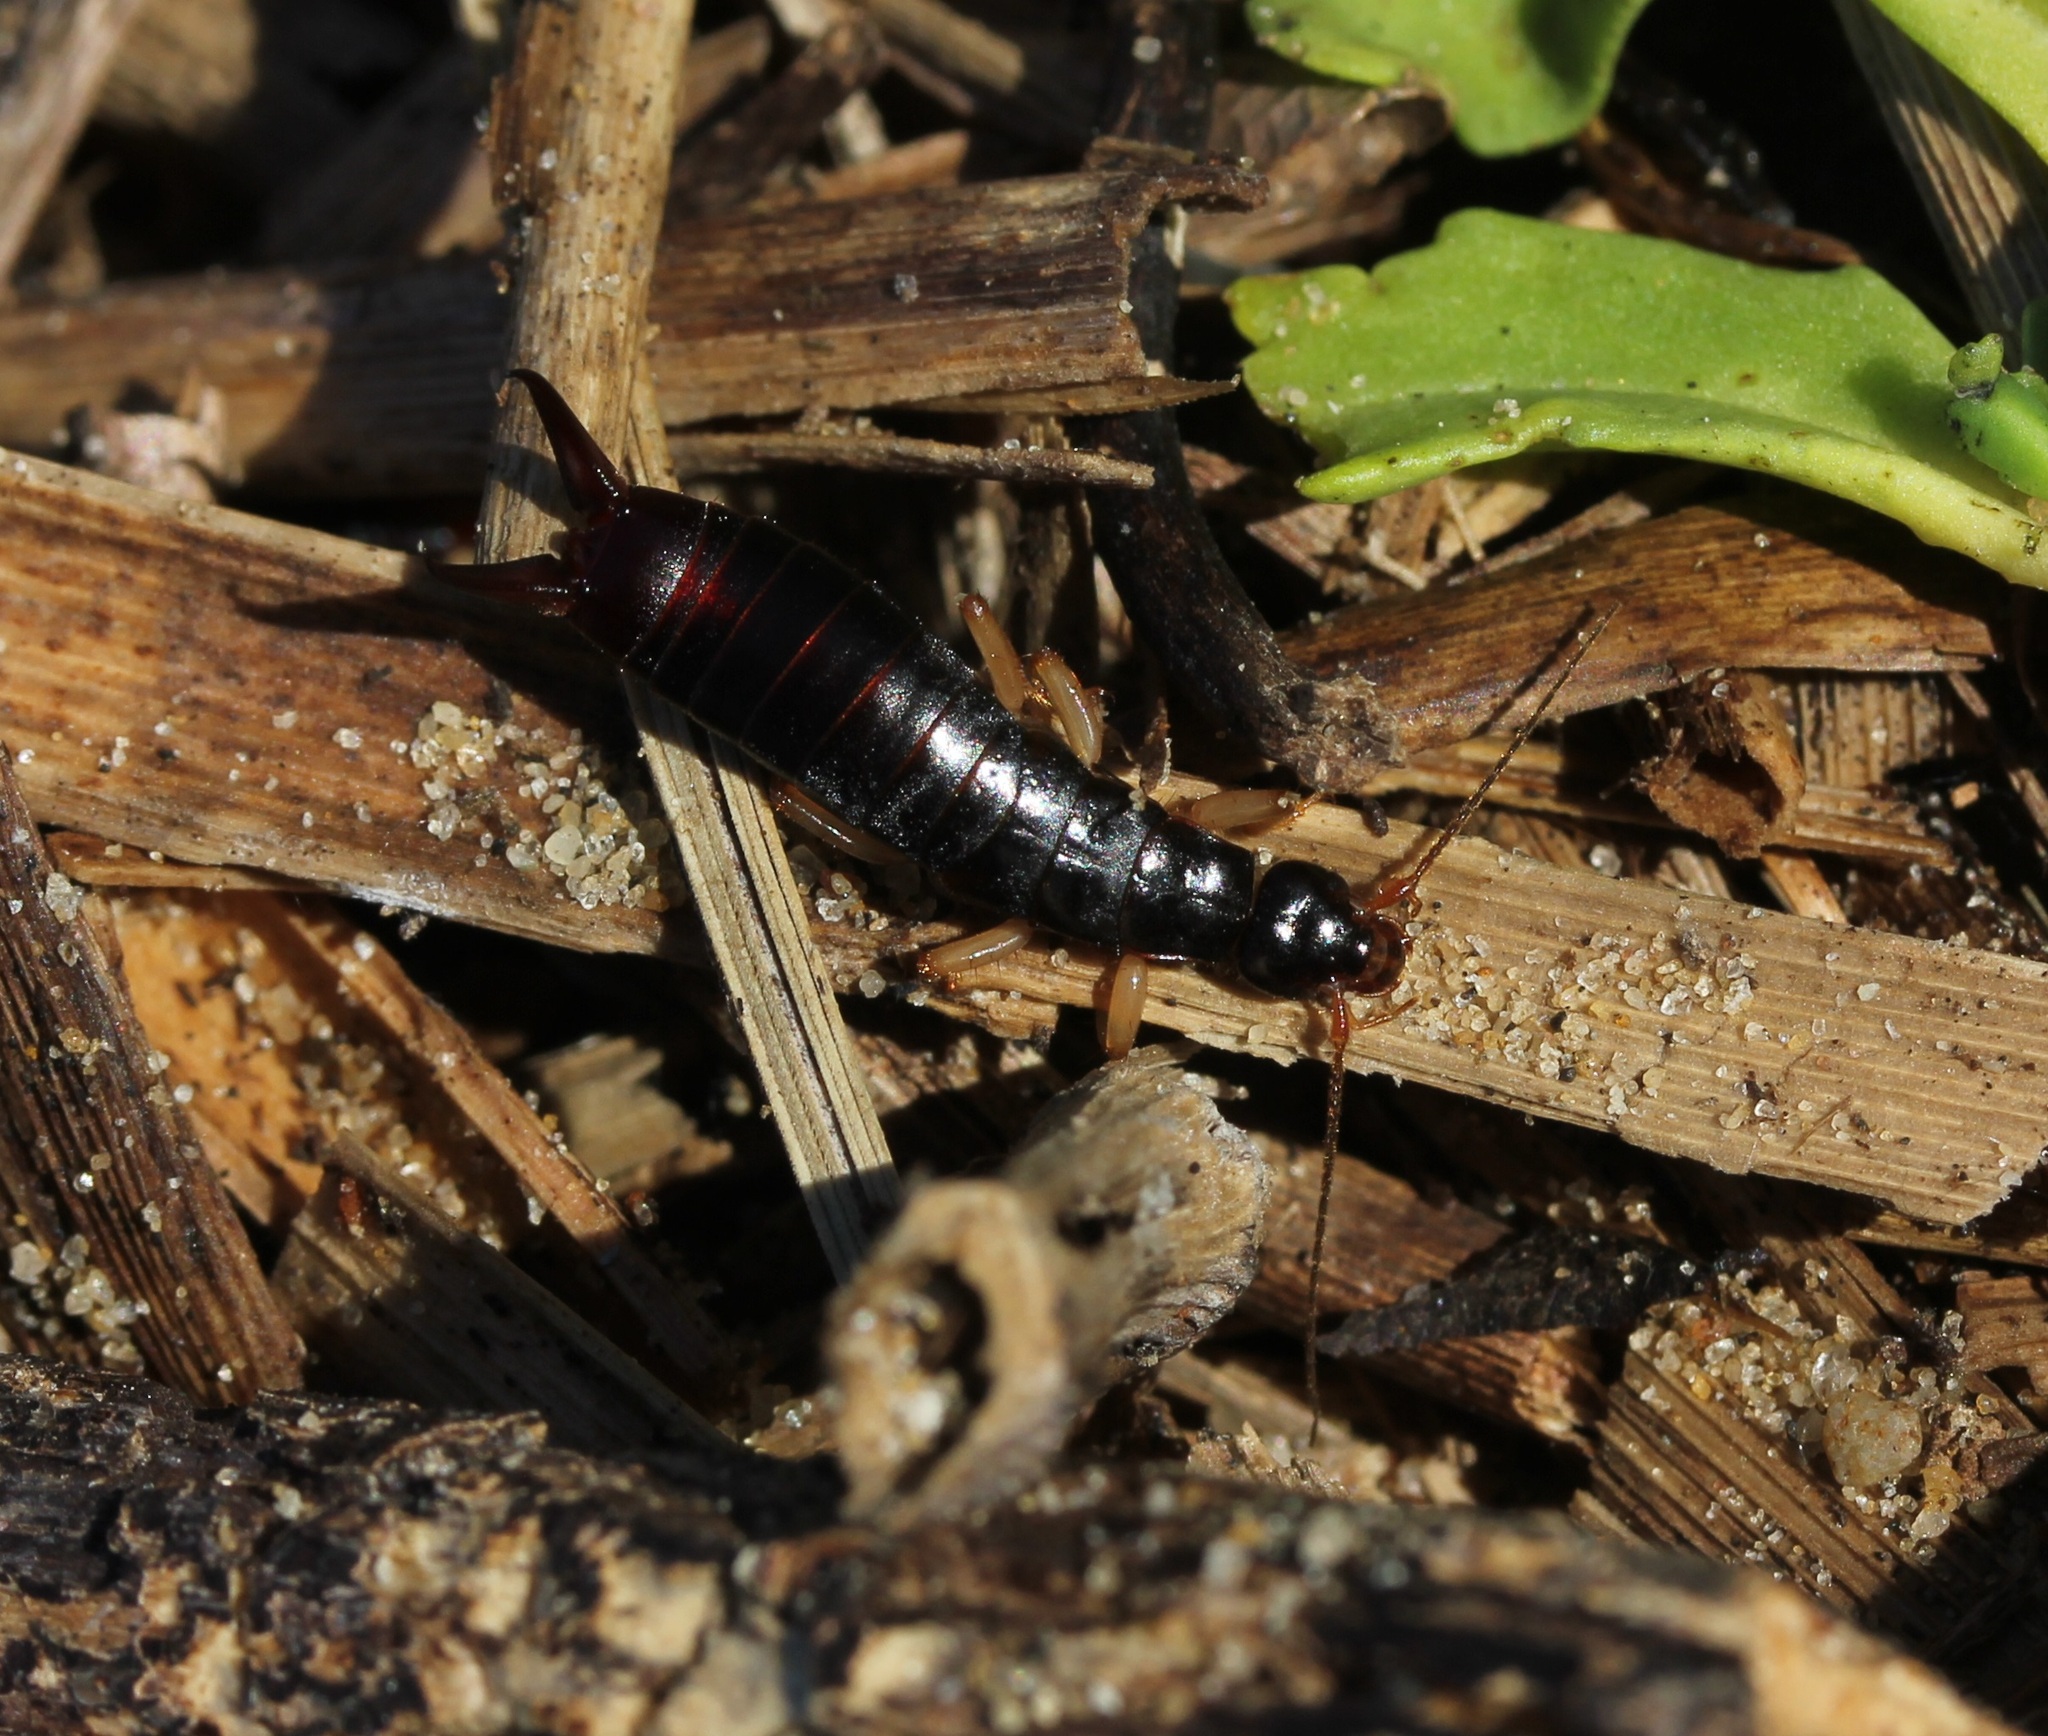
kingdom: Animalia
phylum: Arthropoda
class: Insecta
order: Dermaptera
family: Anisolabididae
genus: Anisolabis
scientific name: Anisolabis maritima
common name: Maritime earwig
